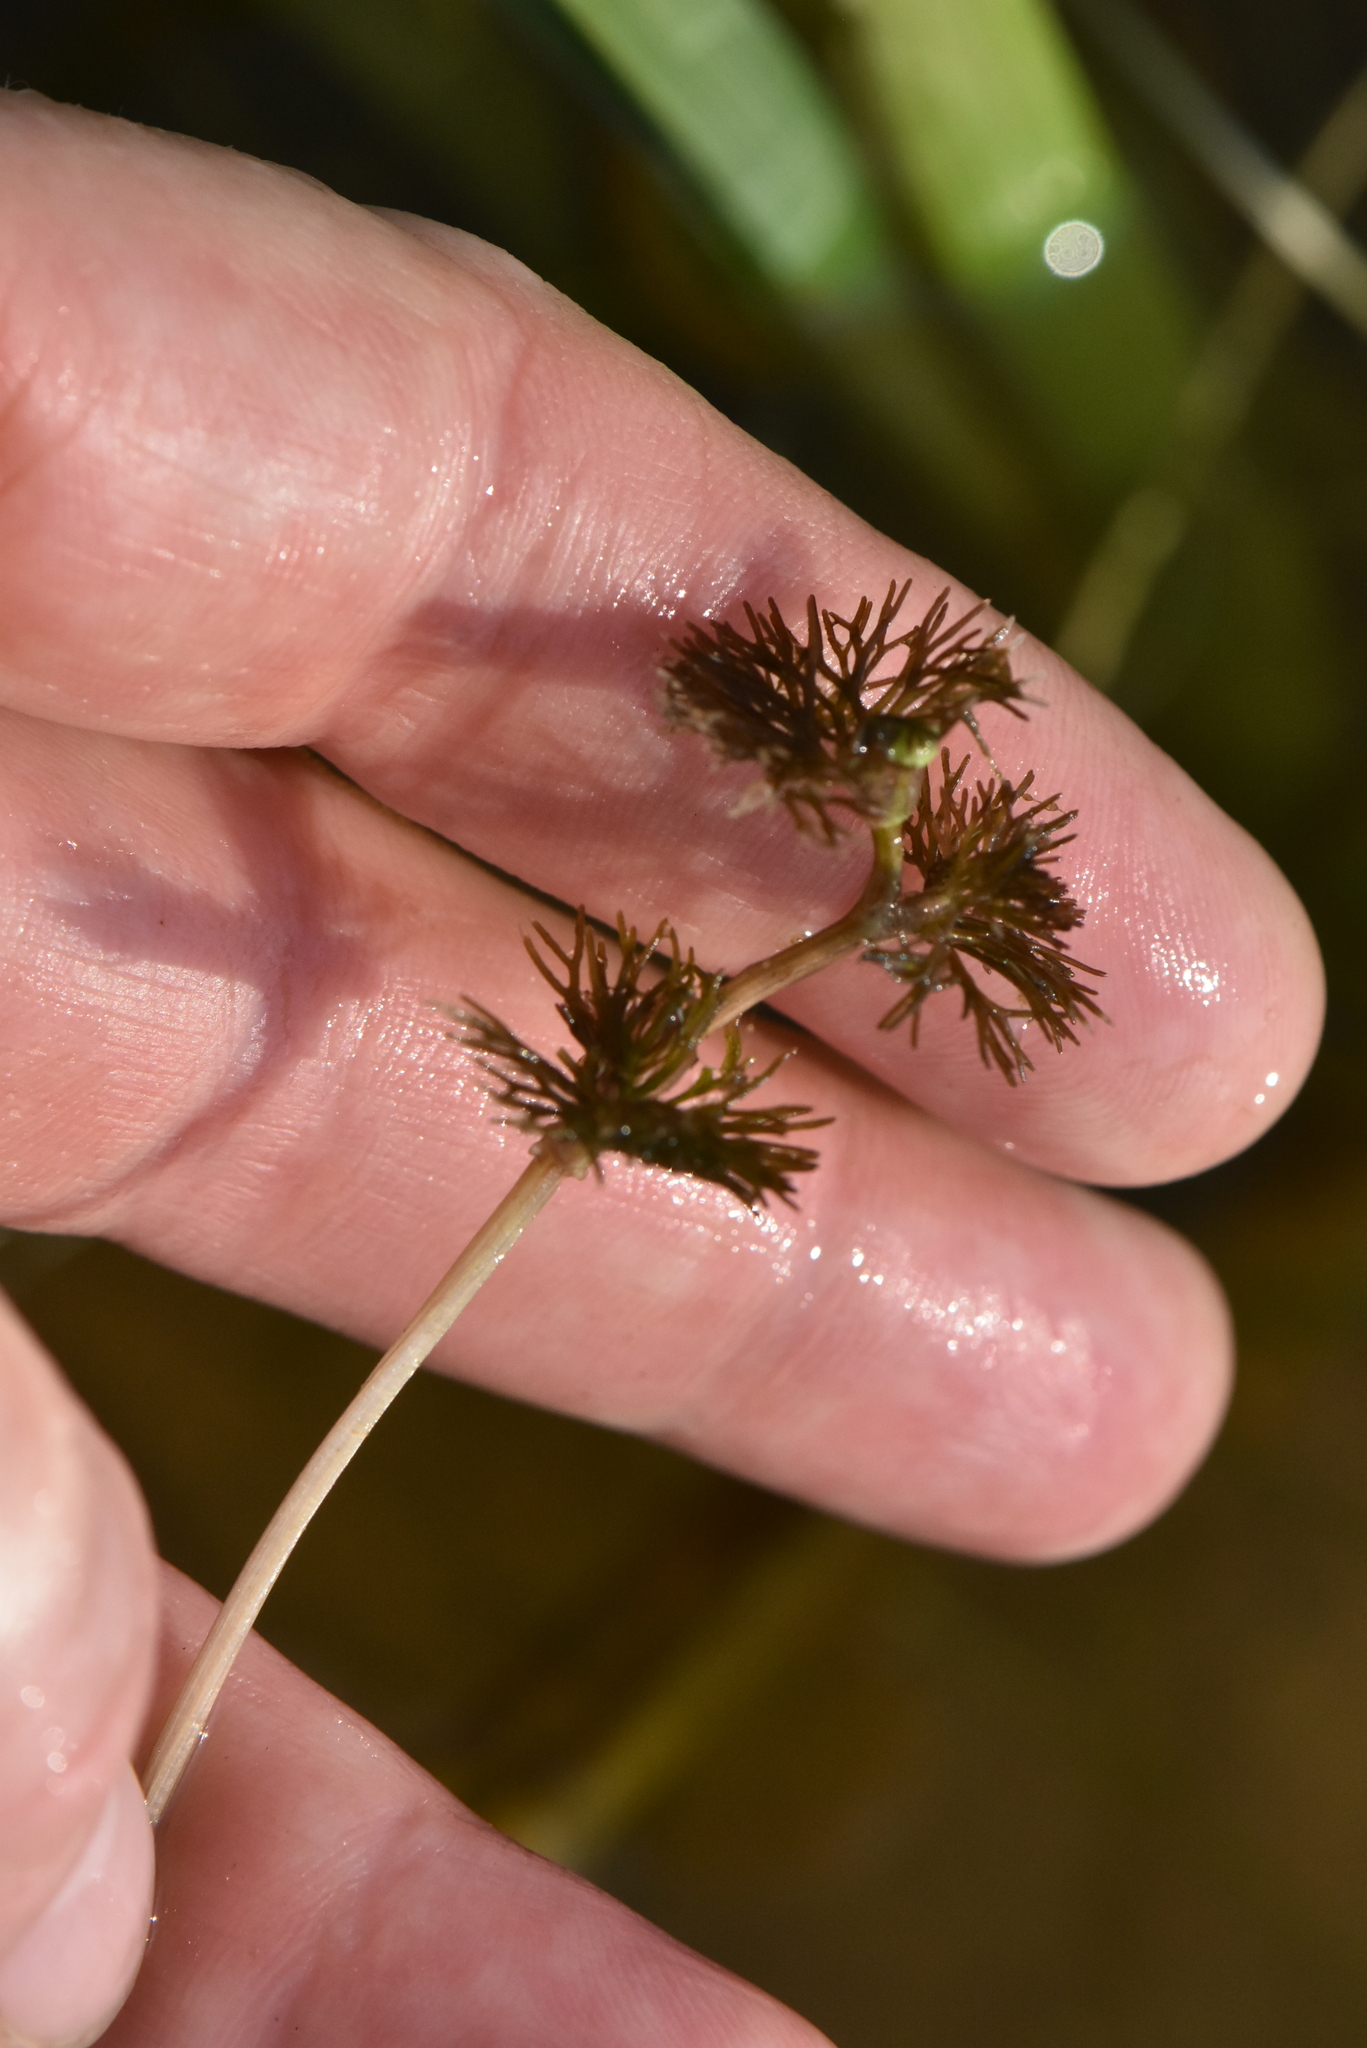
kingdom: Plantae
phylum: Tracheophyta
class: Magnoliopsida
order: Ranunculales
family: Ranunculaceae
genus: Ranunculus
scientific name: Ranunculus circinatus
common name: Fan-leaved water-crowfoot
